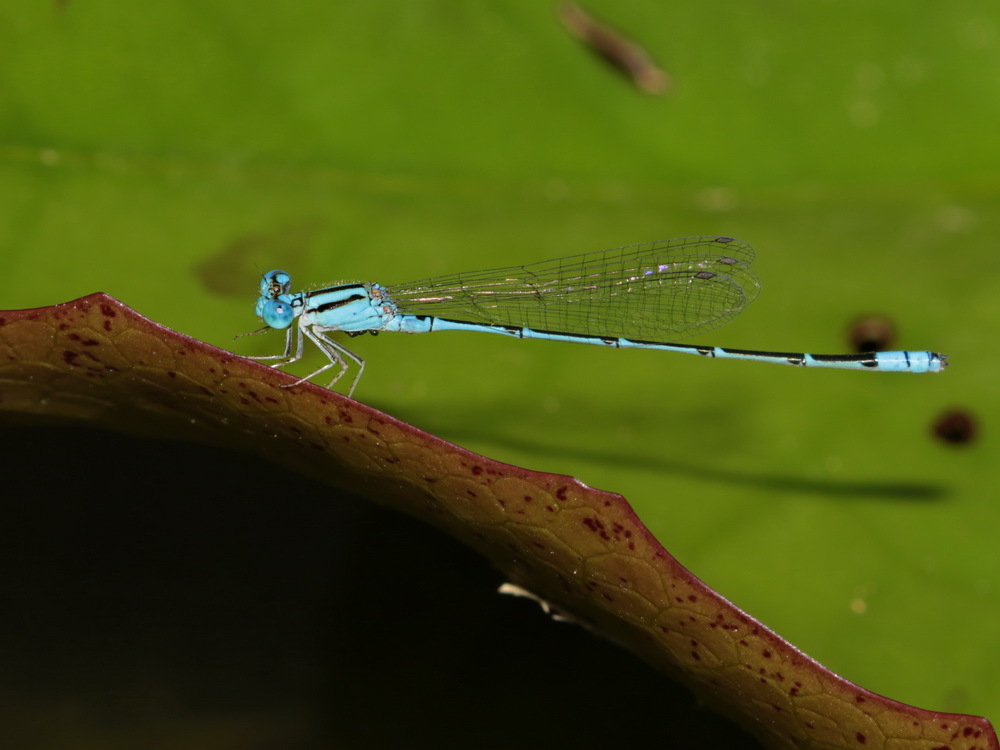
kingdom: Animalia
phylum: Arthropoda
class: Insecta
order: Odonata
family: Coenagrionidae
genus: Pseudagrion
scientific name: Pseudagrion australasiae
